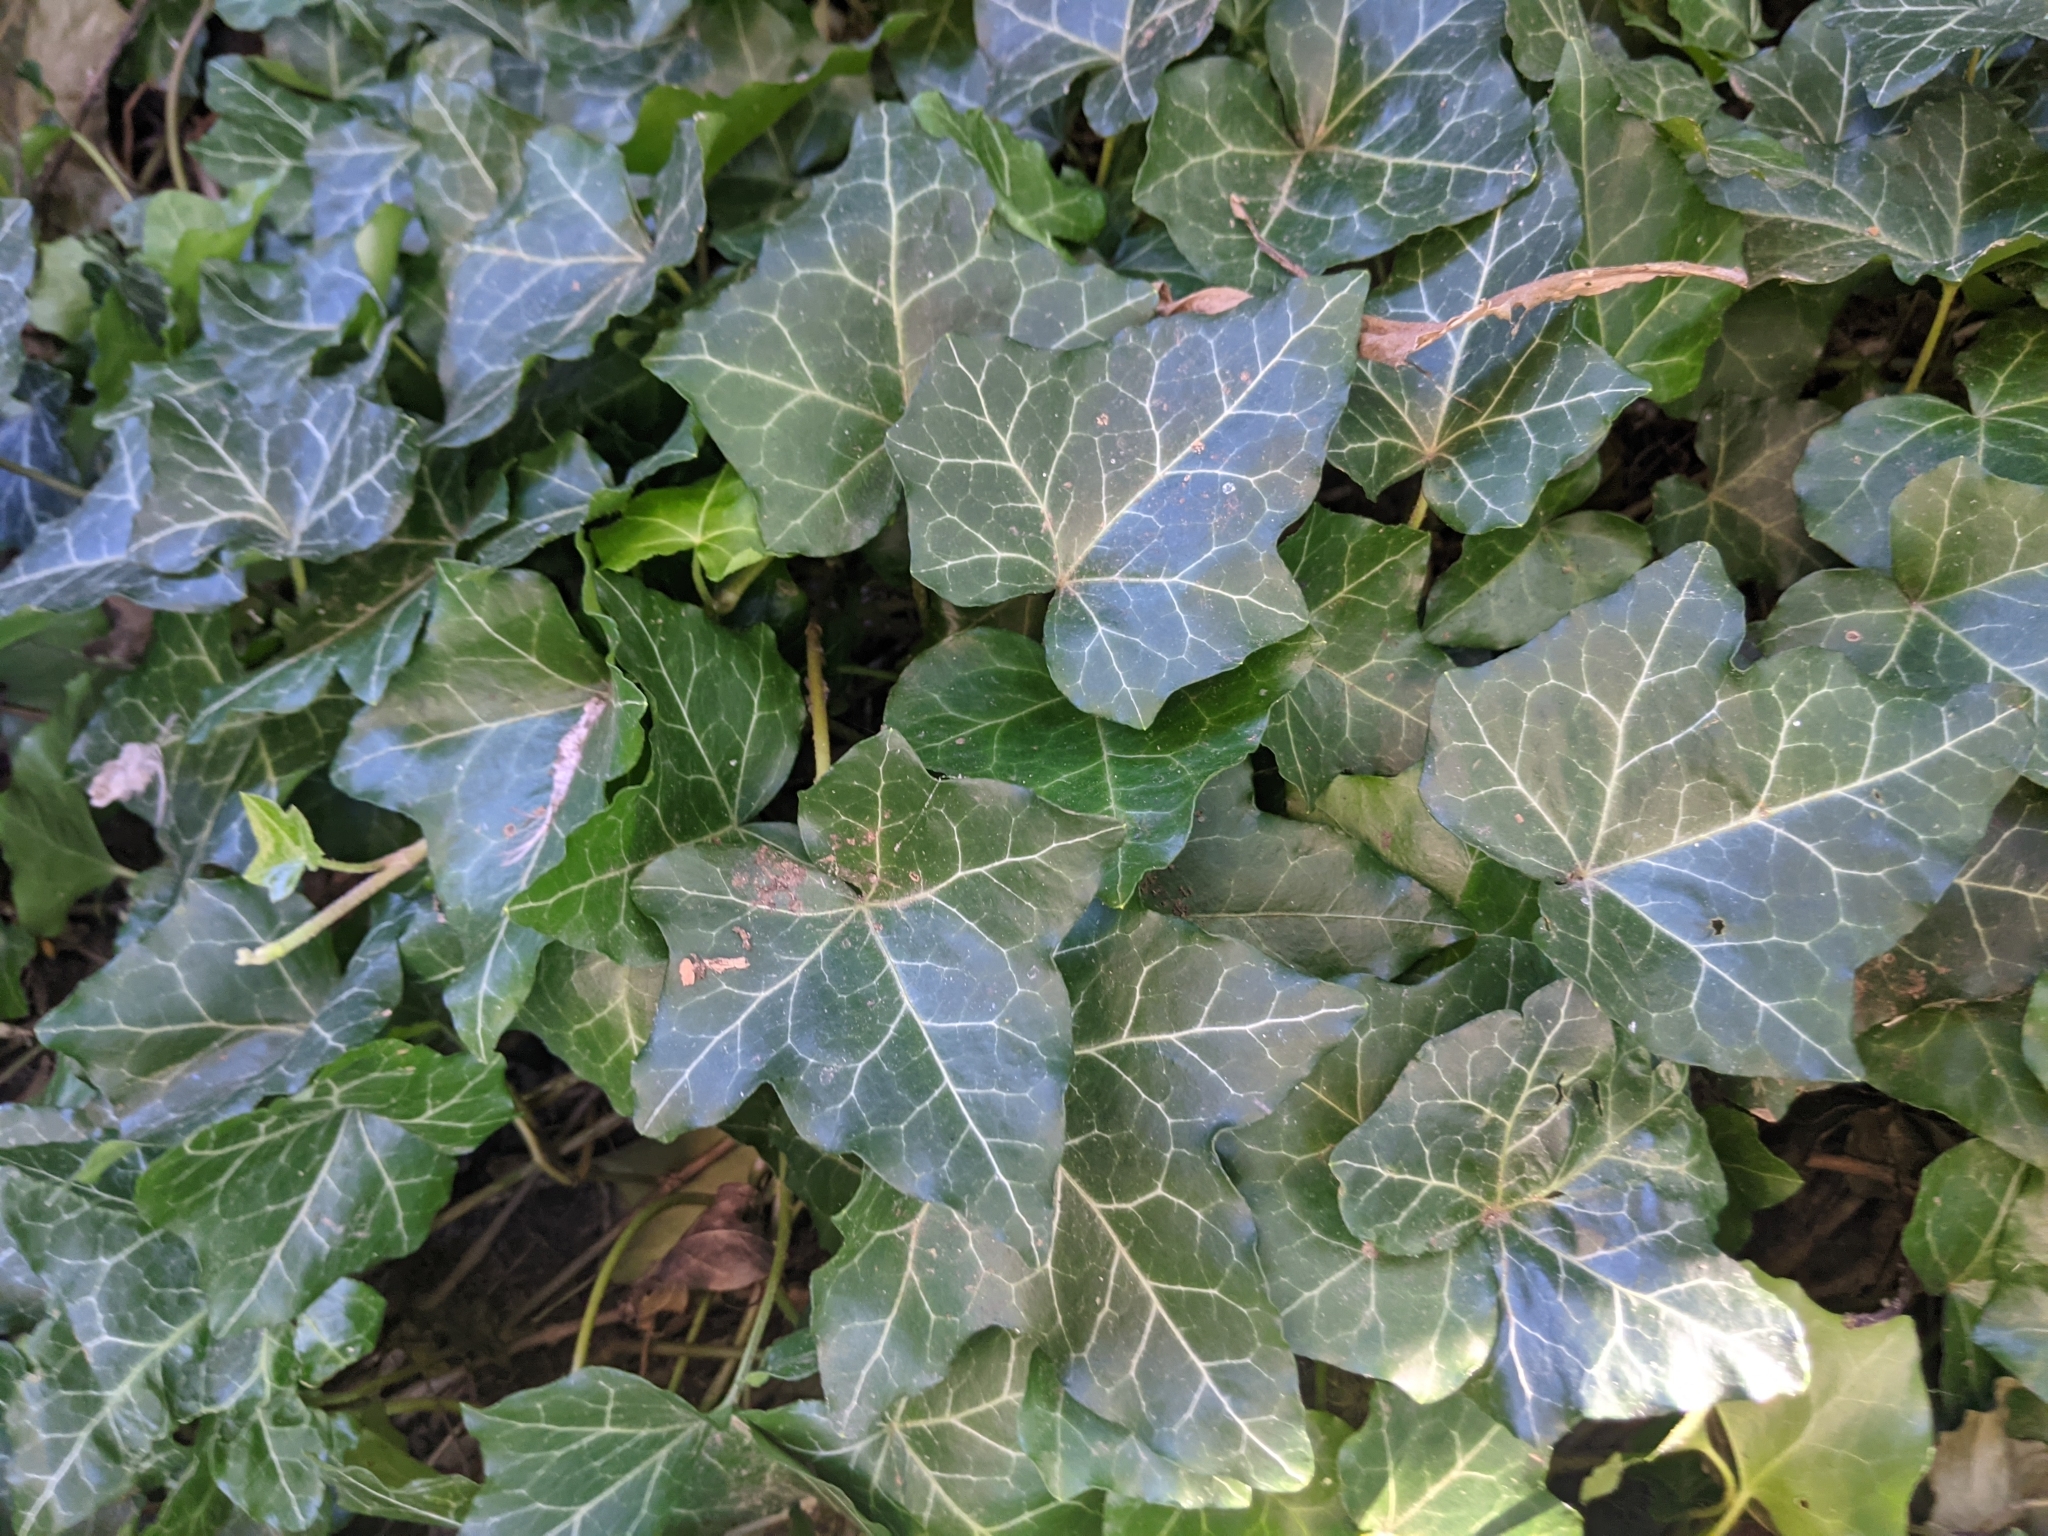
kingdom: Plantae
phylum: Tracheophyta
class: Magnoliopsida
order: Apiales
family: Araliaceae
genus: Hedera
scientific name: Hedera helix
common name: Ivy
